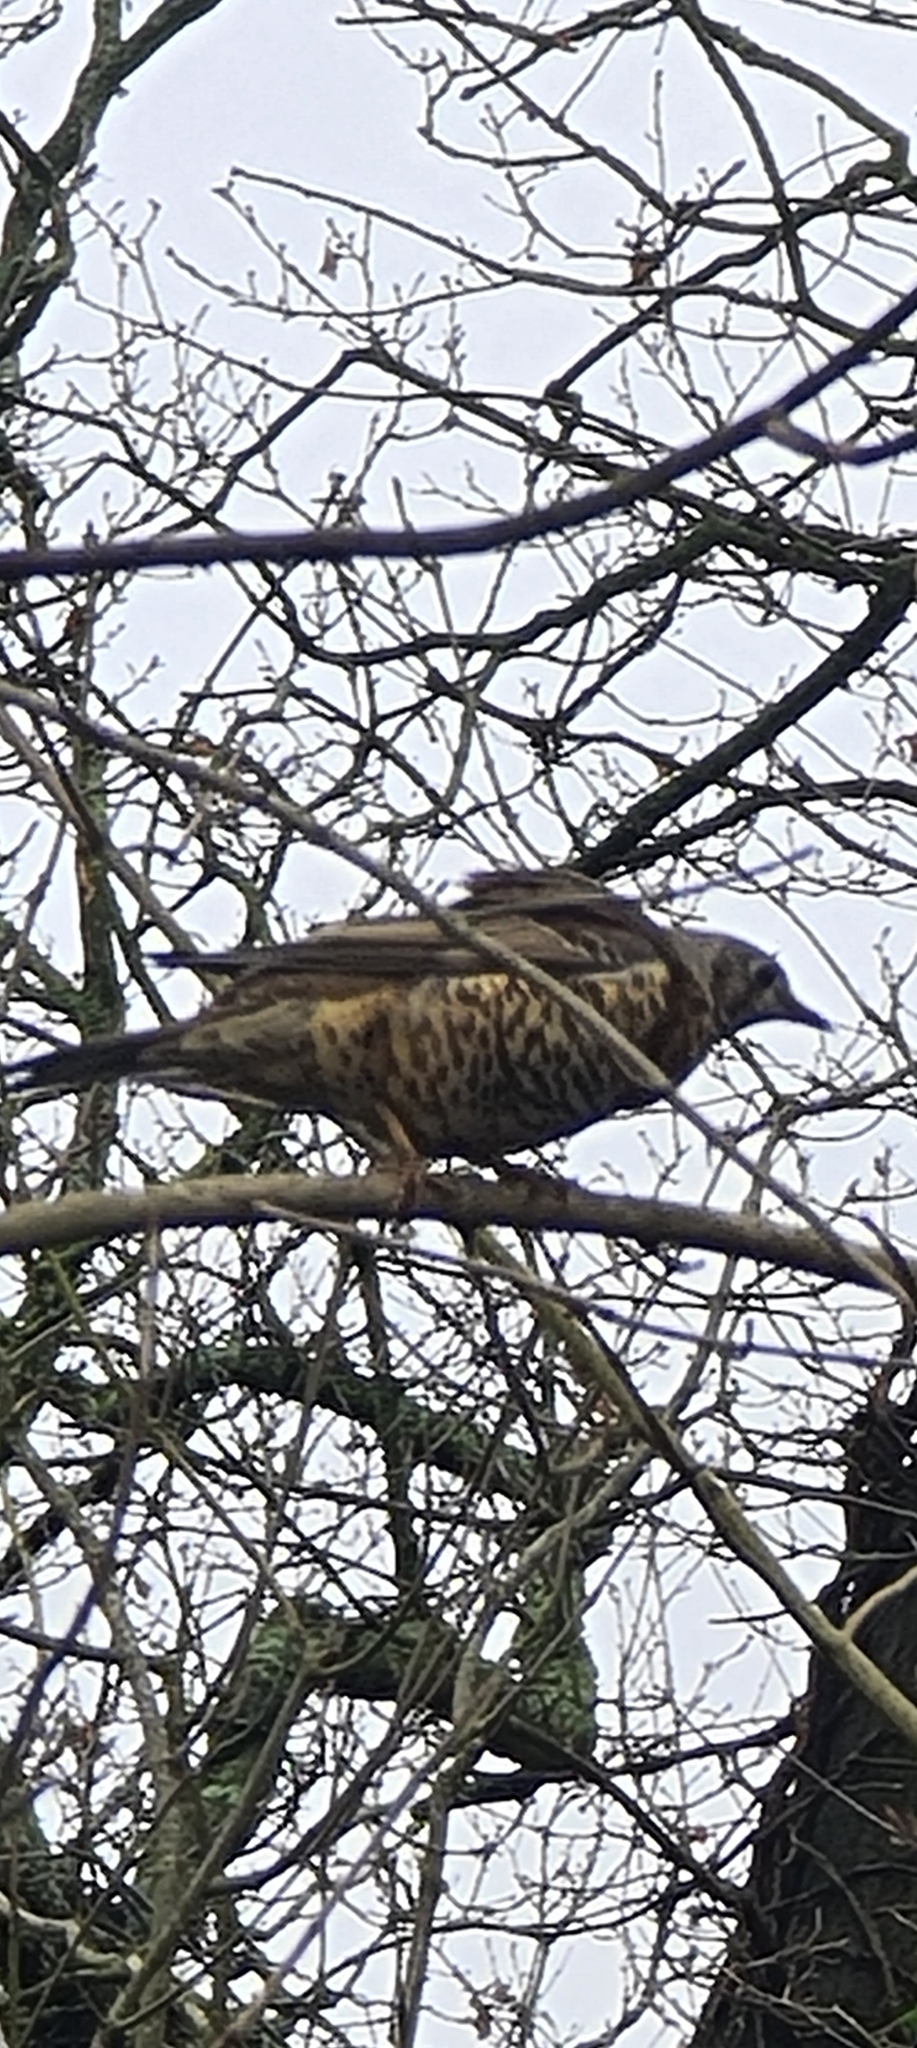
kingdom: Animalia
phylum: Chordata
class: Aves
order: Passeriformes
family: Turdidae
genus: Turdus
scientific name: Turdus viscivorus
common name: Mistle thrush
